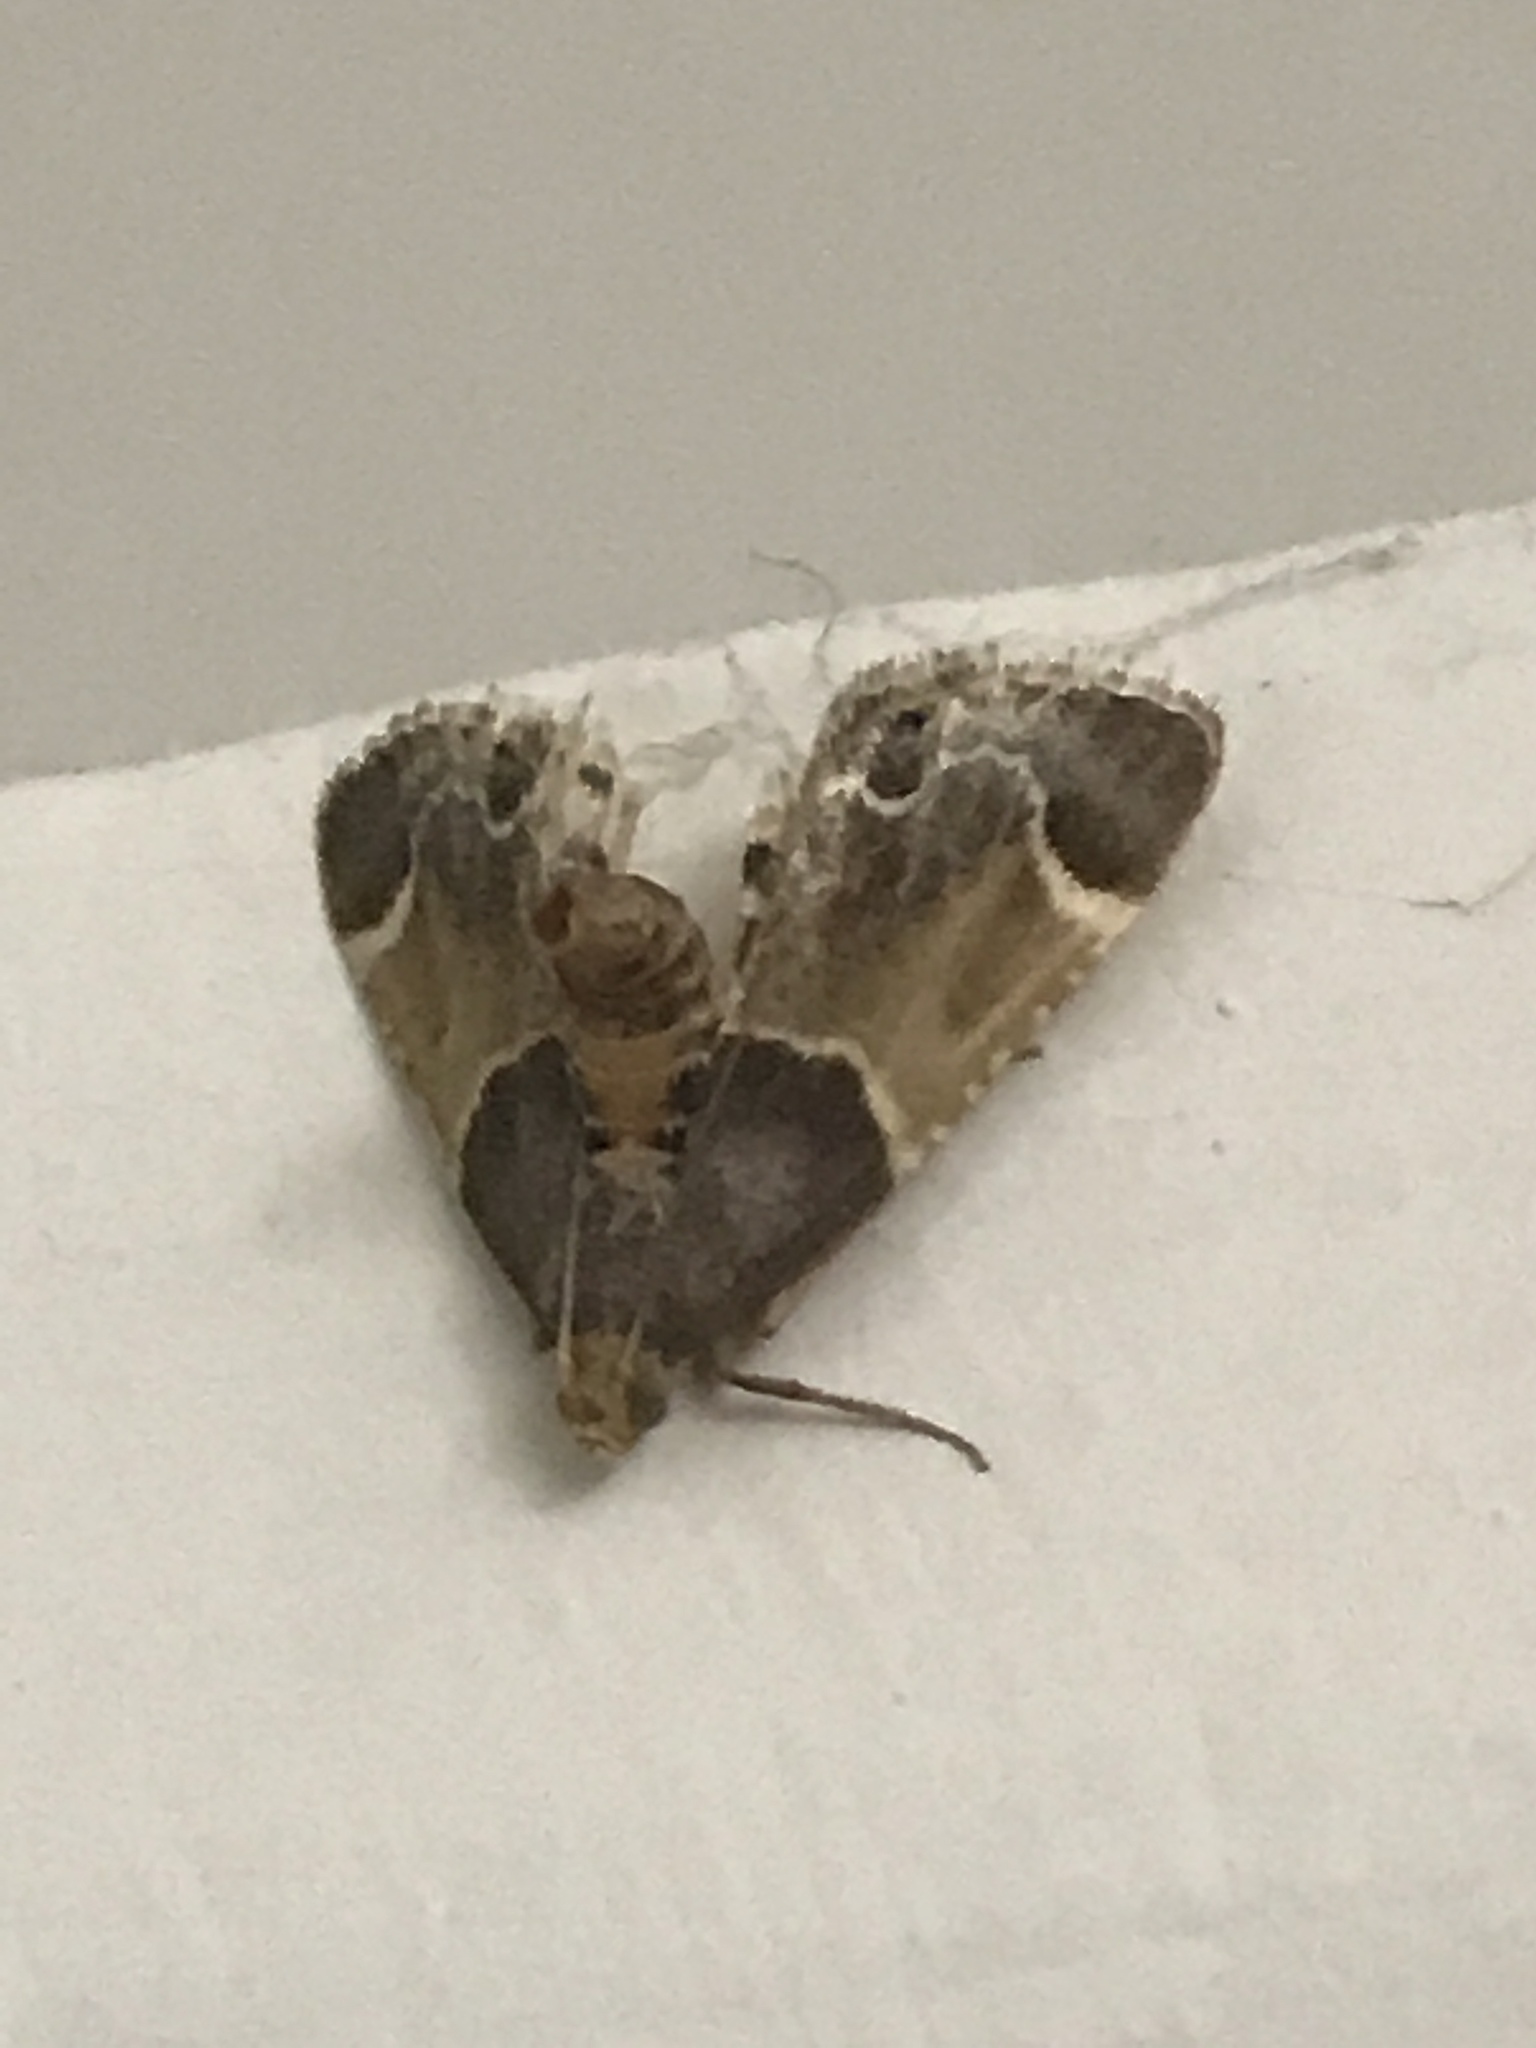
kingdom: Animalia
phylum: Arthropoda
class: Insecta
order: Lepidoptera
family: Pyralidae
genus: Pyralis
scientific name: Pyralis farinalis
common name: Meal moth
